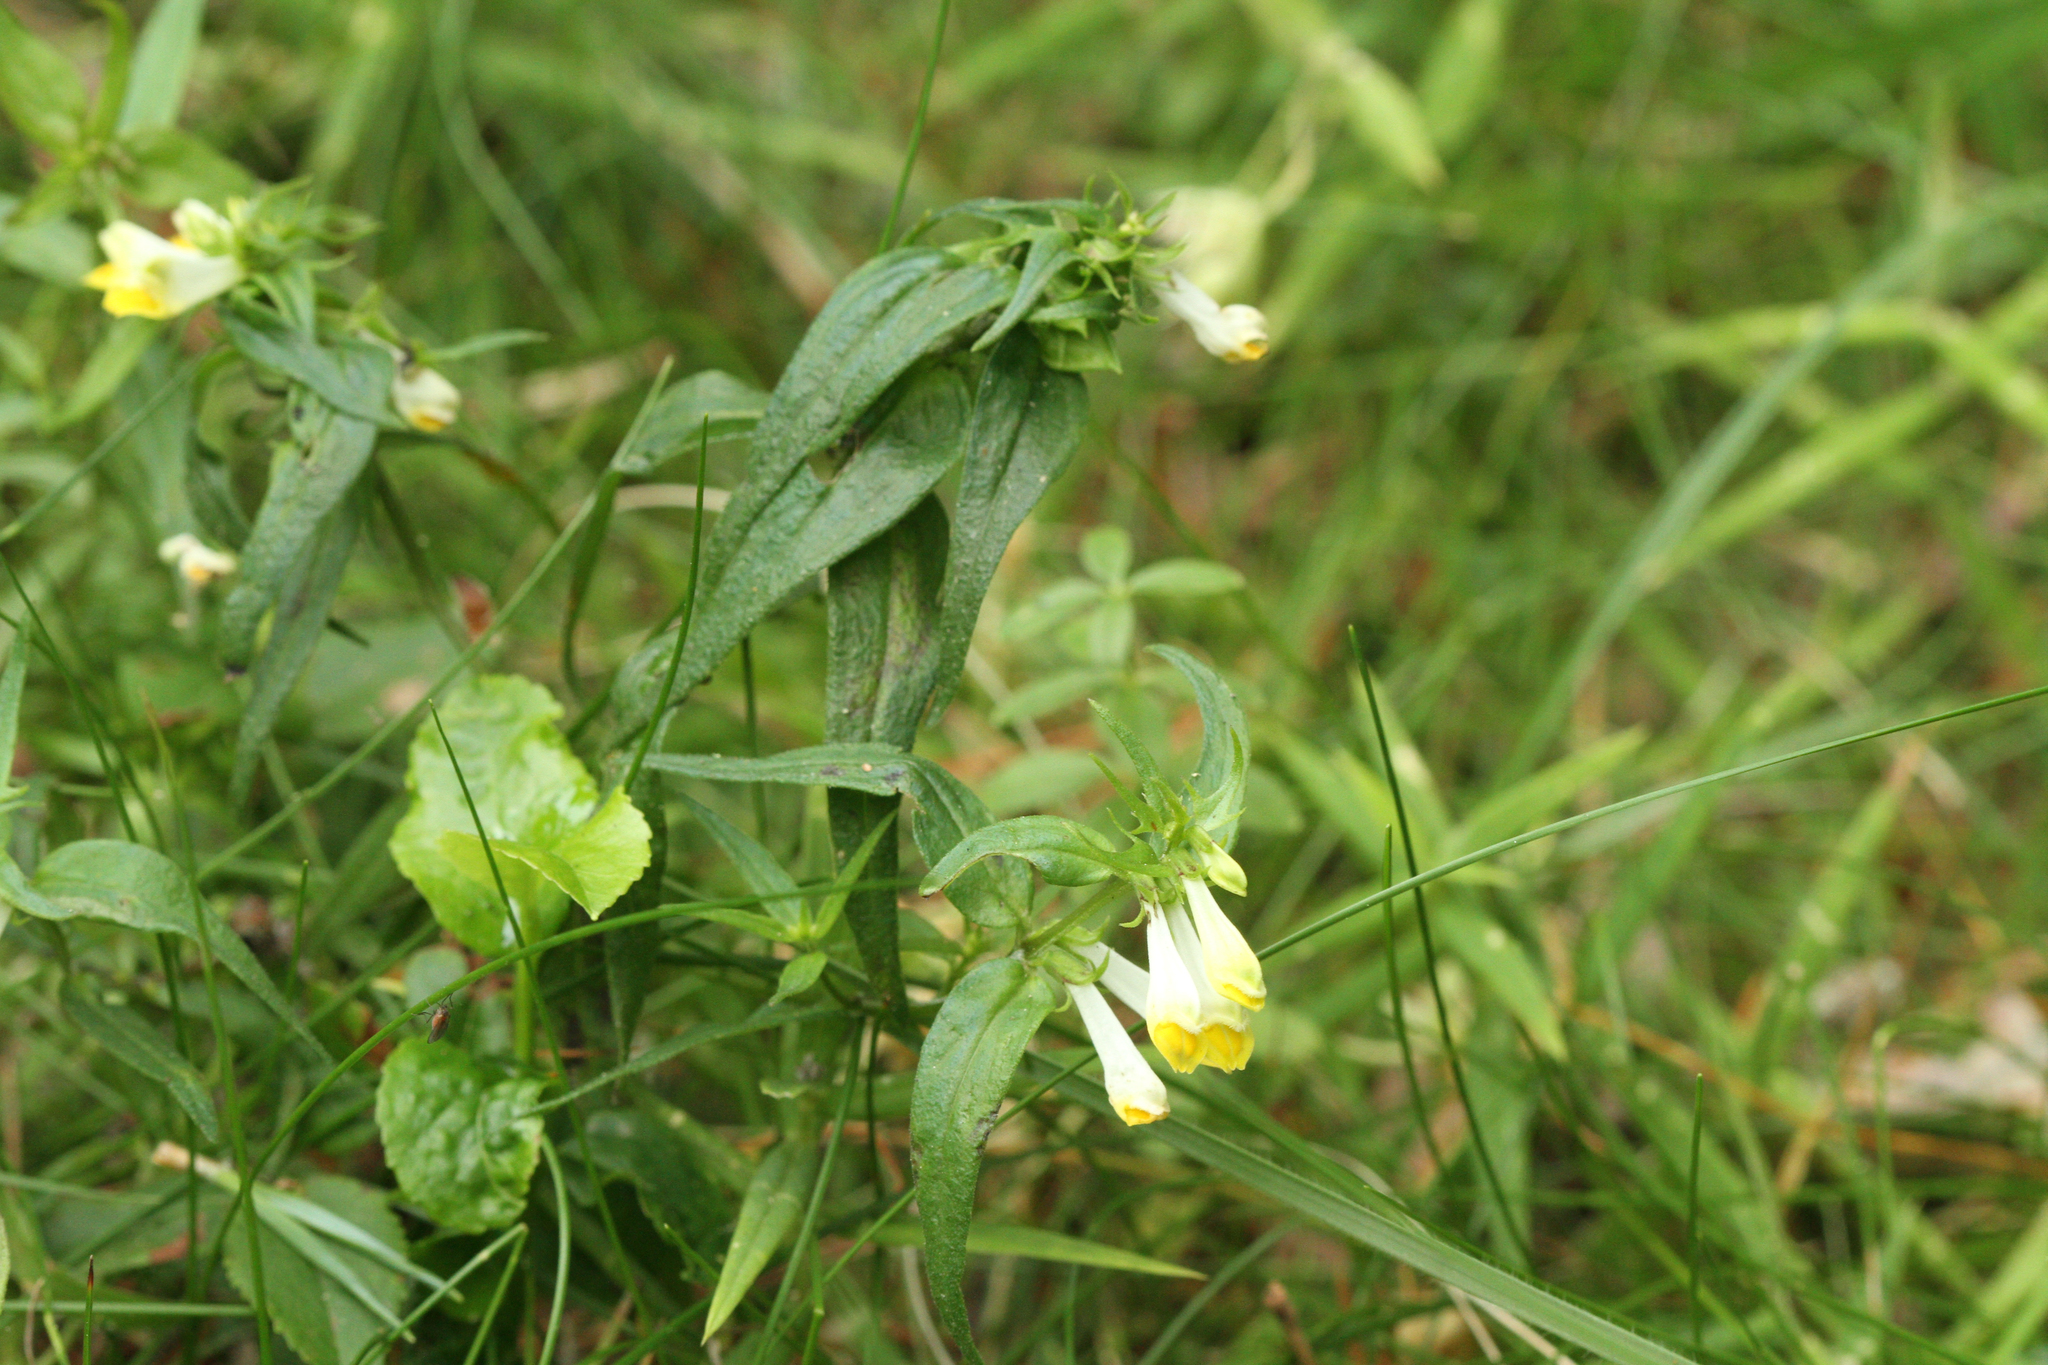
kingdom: Plantae
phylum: Tracheophyta
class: Magnoliopsida
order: Lamiales
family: Orobanchaceae
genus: Melampyrum
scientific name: Melampyrum pratense
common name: Common cow-wheat
